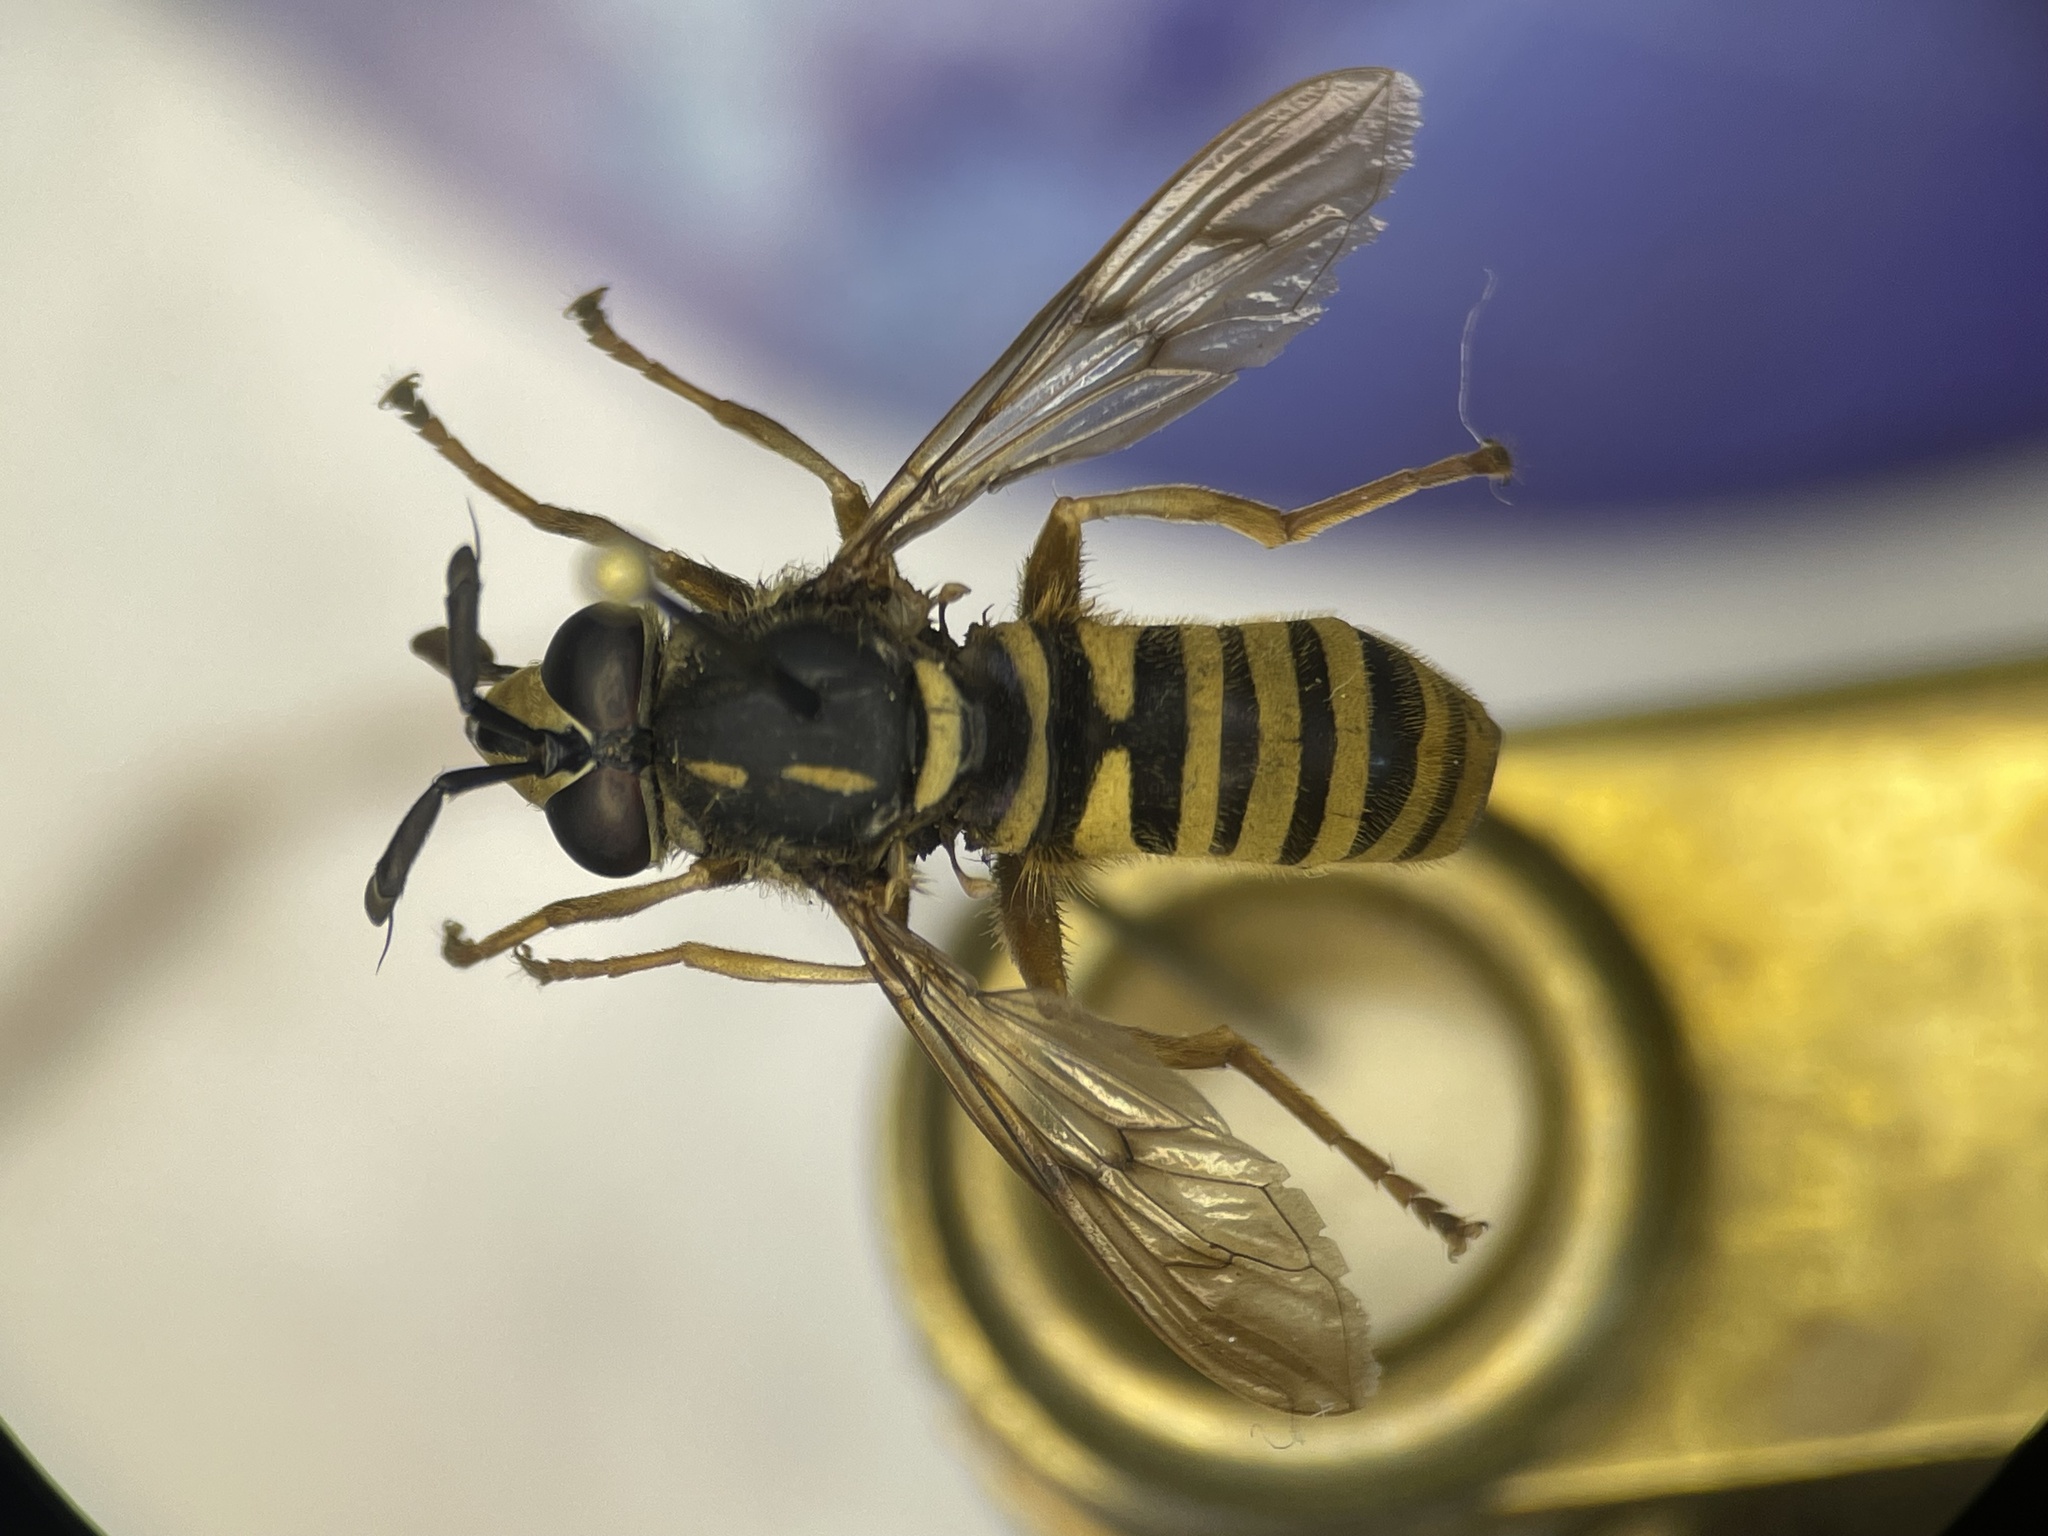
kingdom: Animalia
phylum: Arthropoda
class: Insecta
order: Diptera
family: Syrphidae
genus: Sphecomyia
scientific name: Sphecomyia vittata
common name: Long-horned yellowjacket fly
